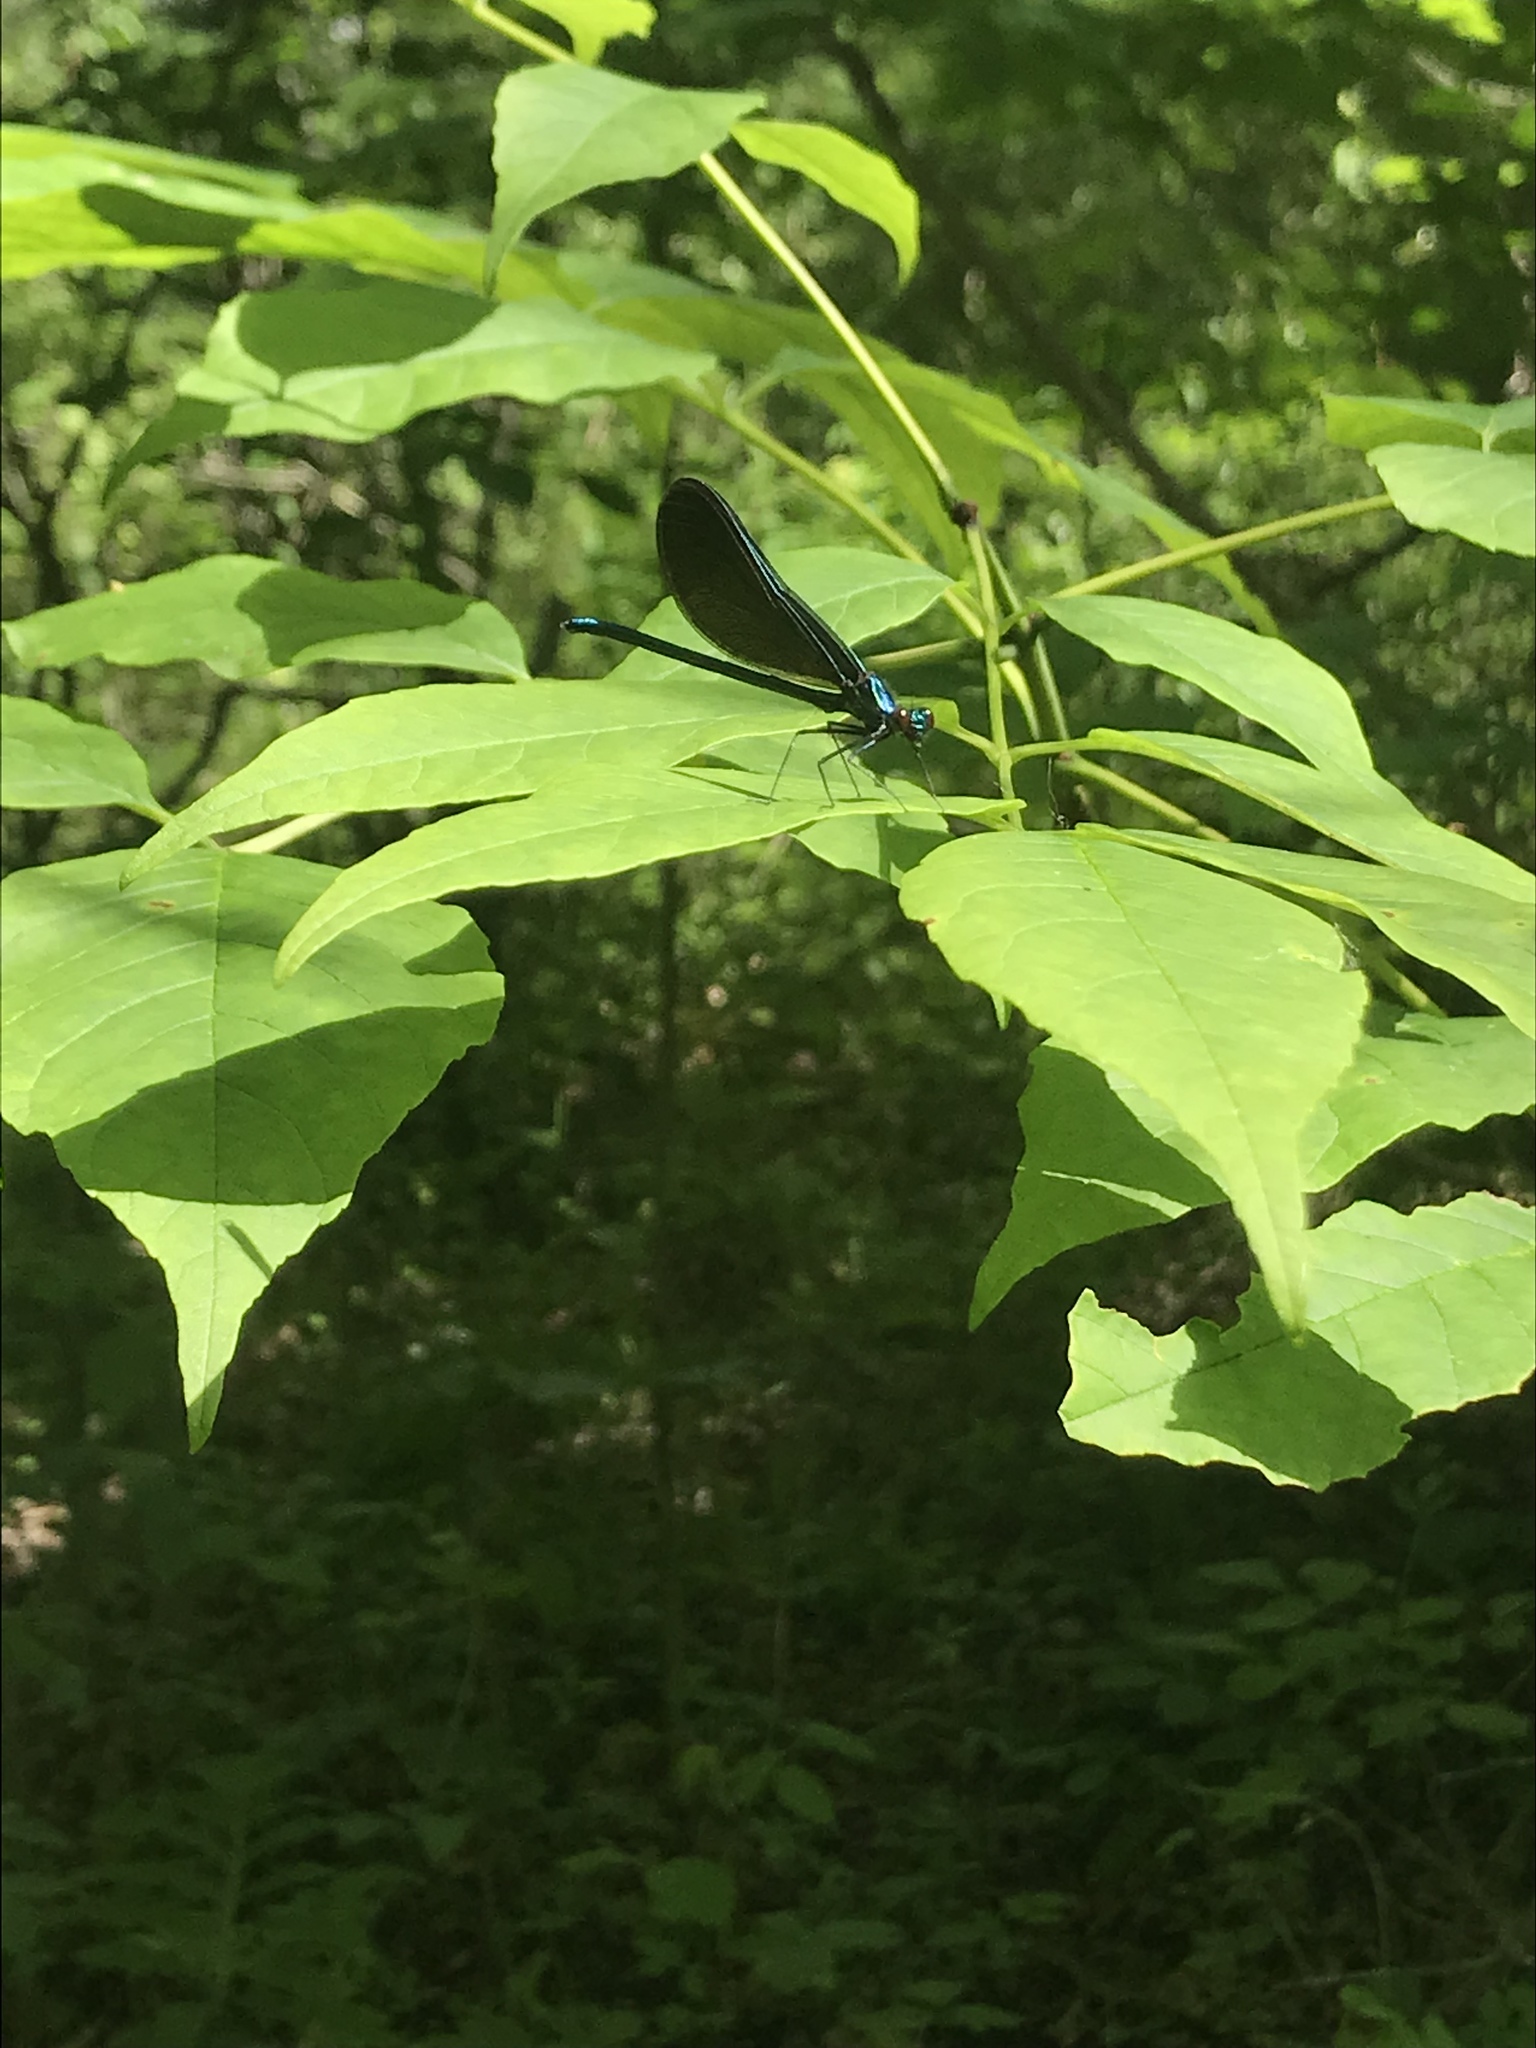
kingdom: Animalia
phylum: Arthropoda
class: Insecta
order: Odonata
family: Calopterygidae
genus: Calopteryx
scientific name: Calopteryx maculata
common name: Ebony jewelwing
